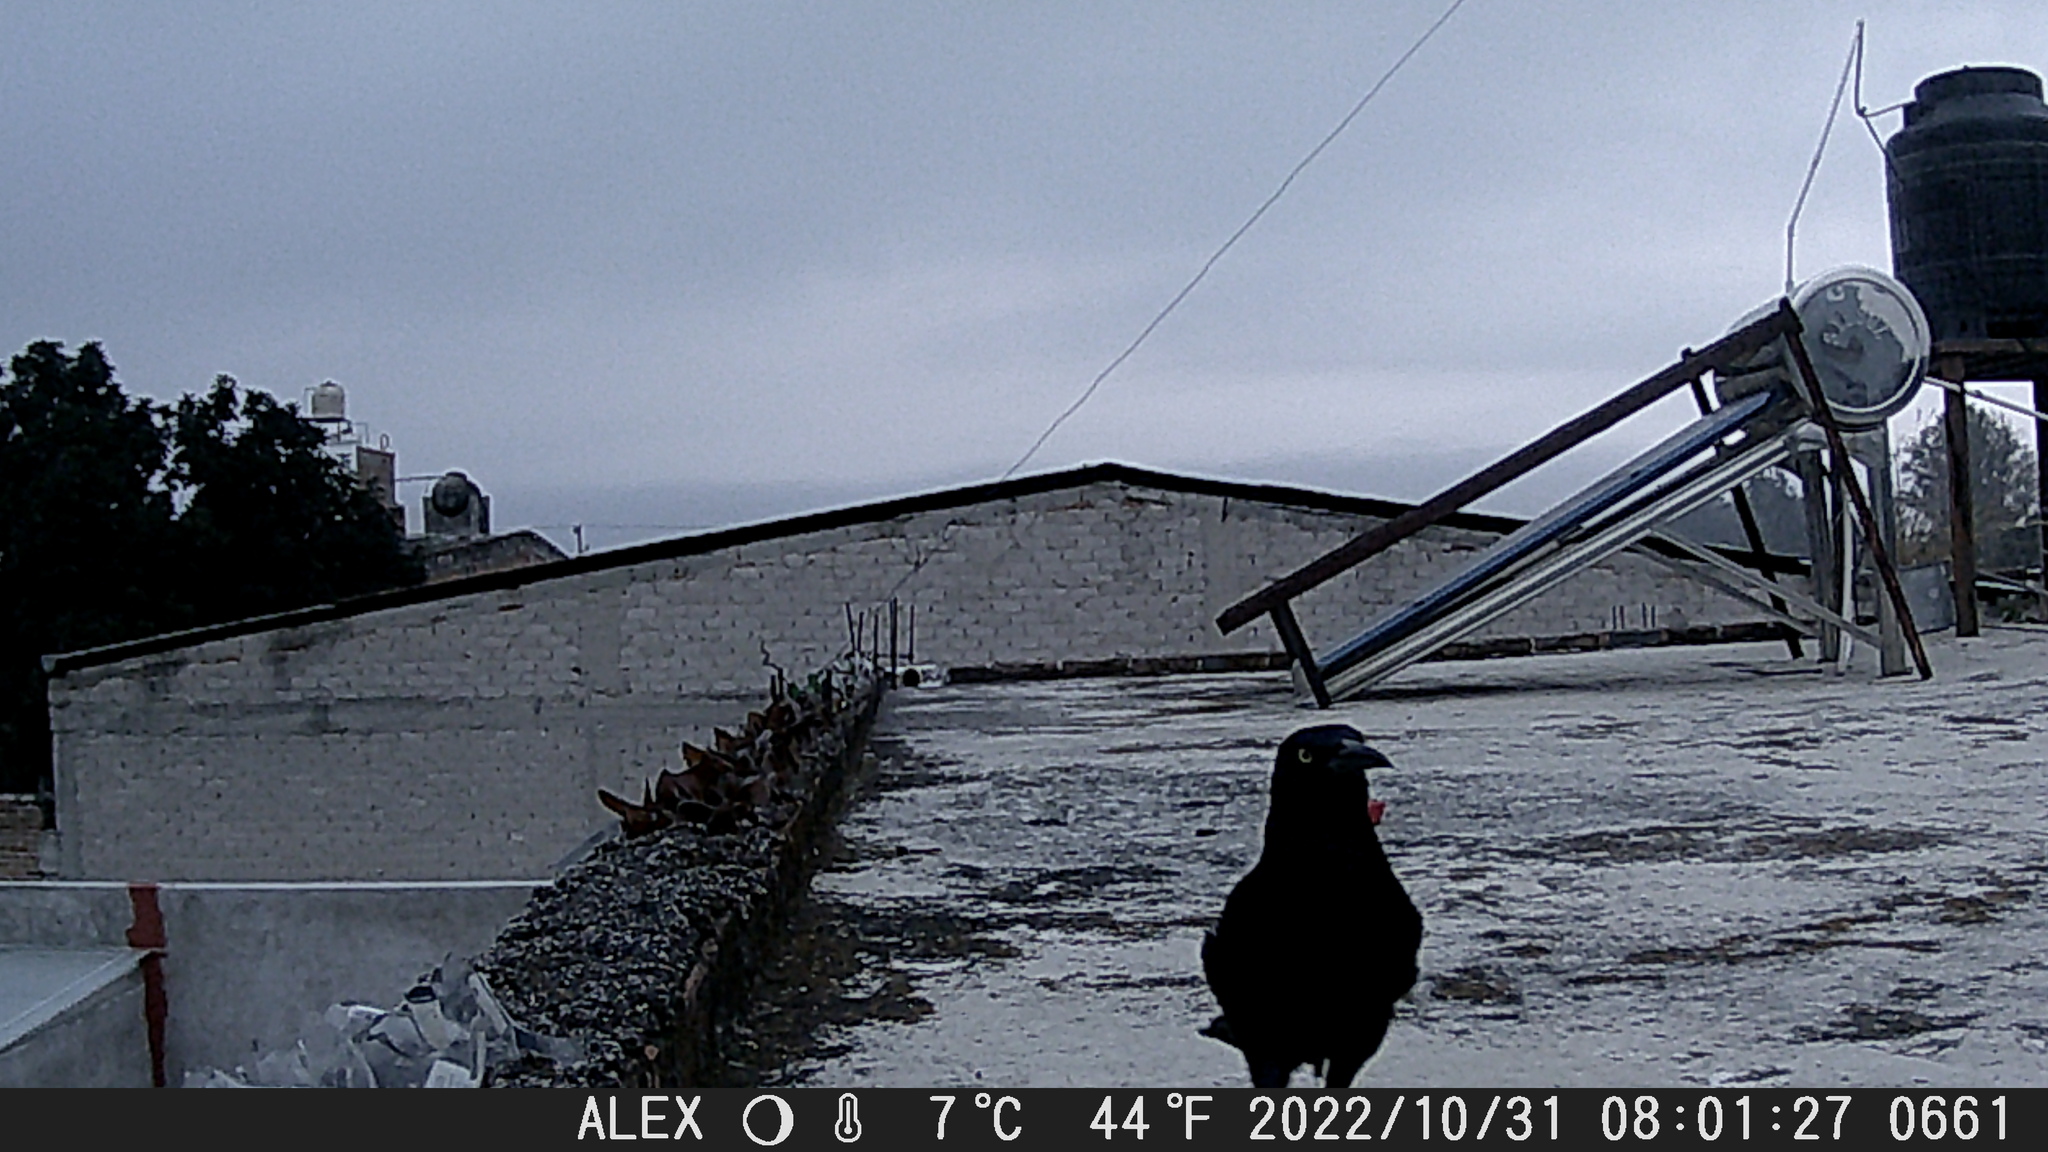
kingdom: Animalia
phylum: Chordata
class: Aves
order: Passeriformes
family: Icteridae
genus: Quiscalus
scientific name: Quiscalus mexicanus
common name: Great-tailed grackle
